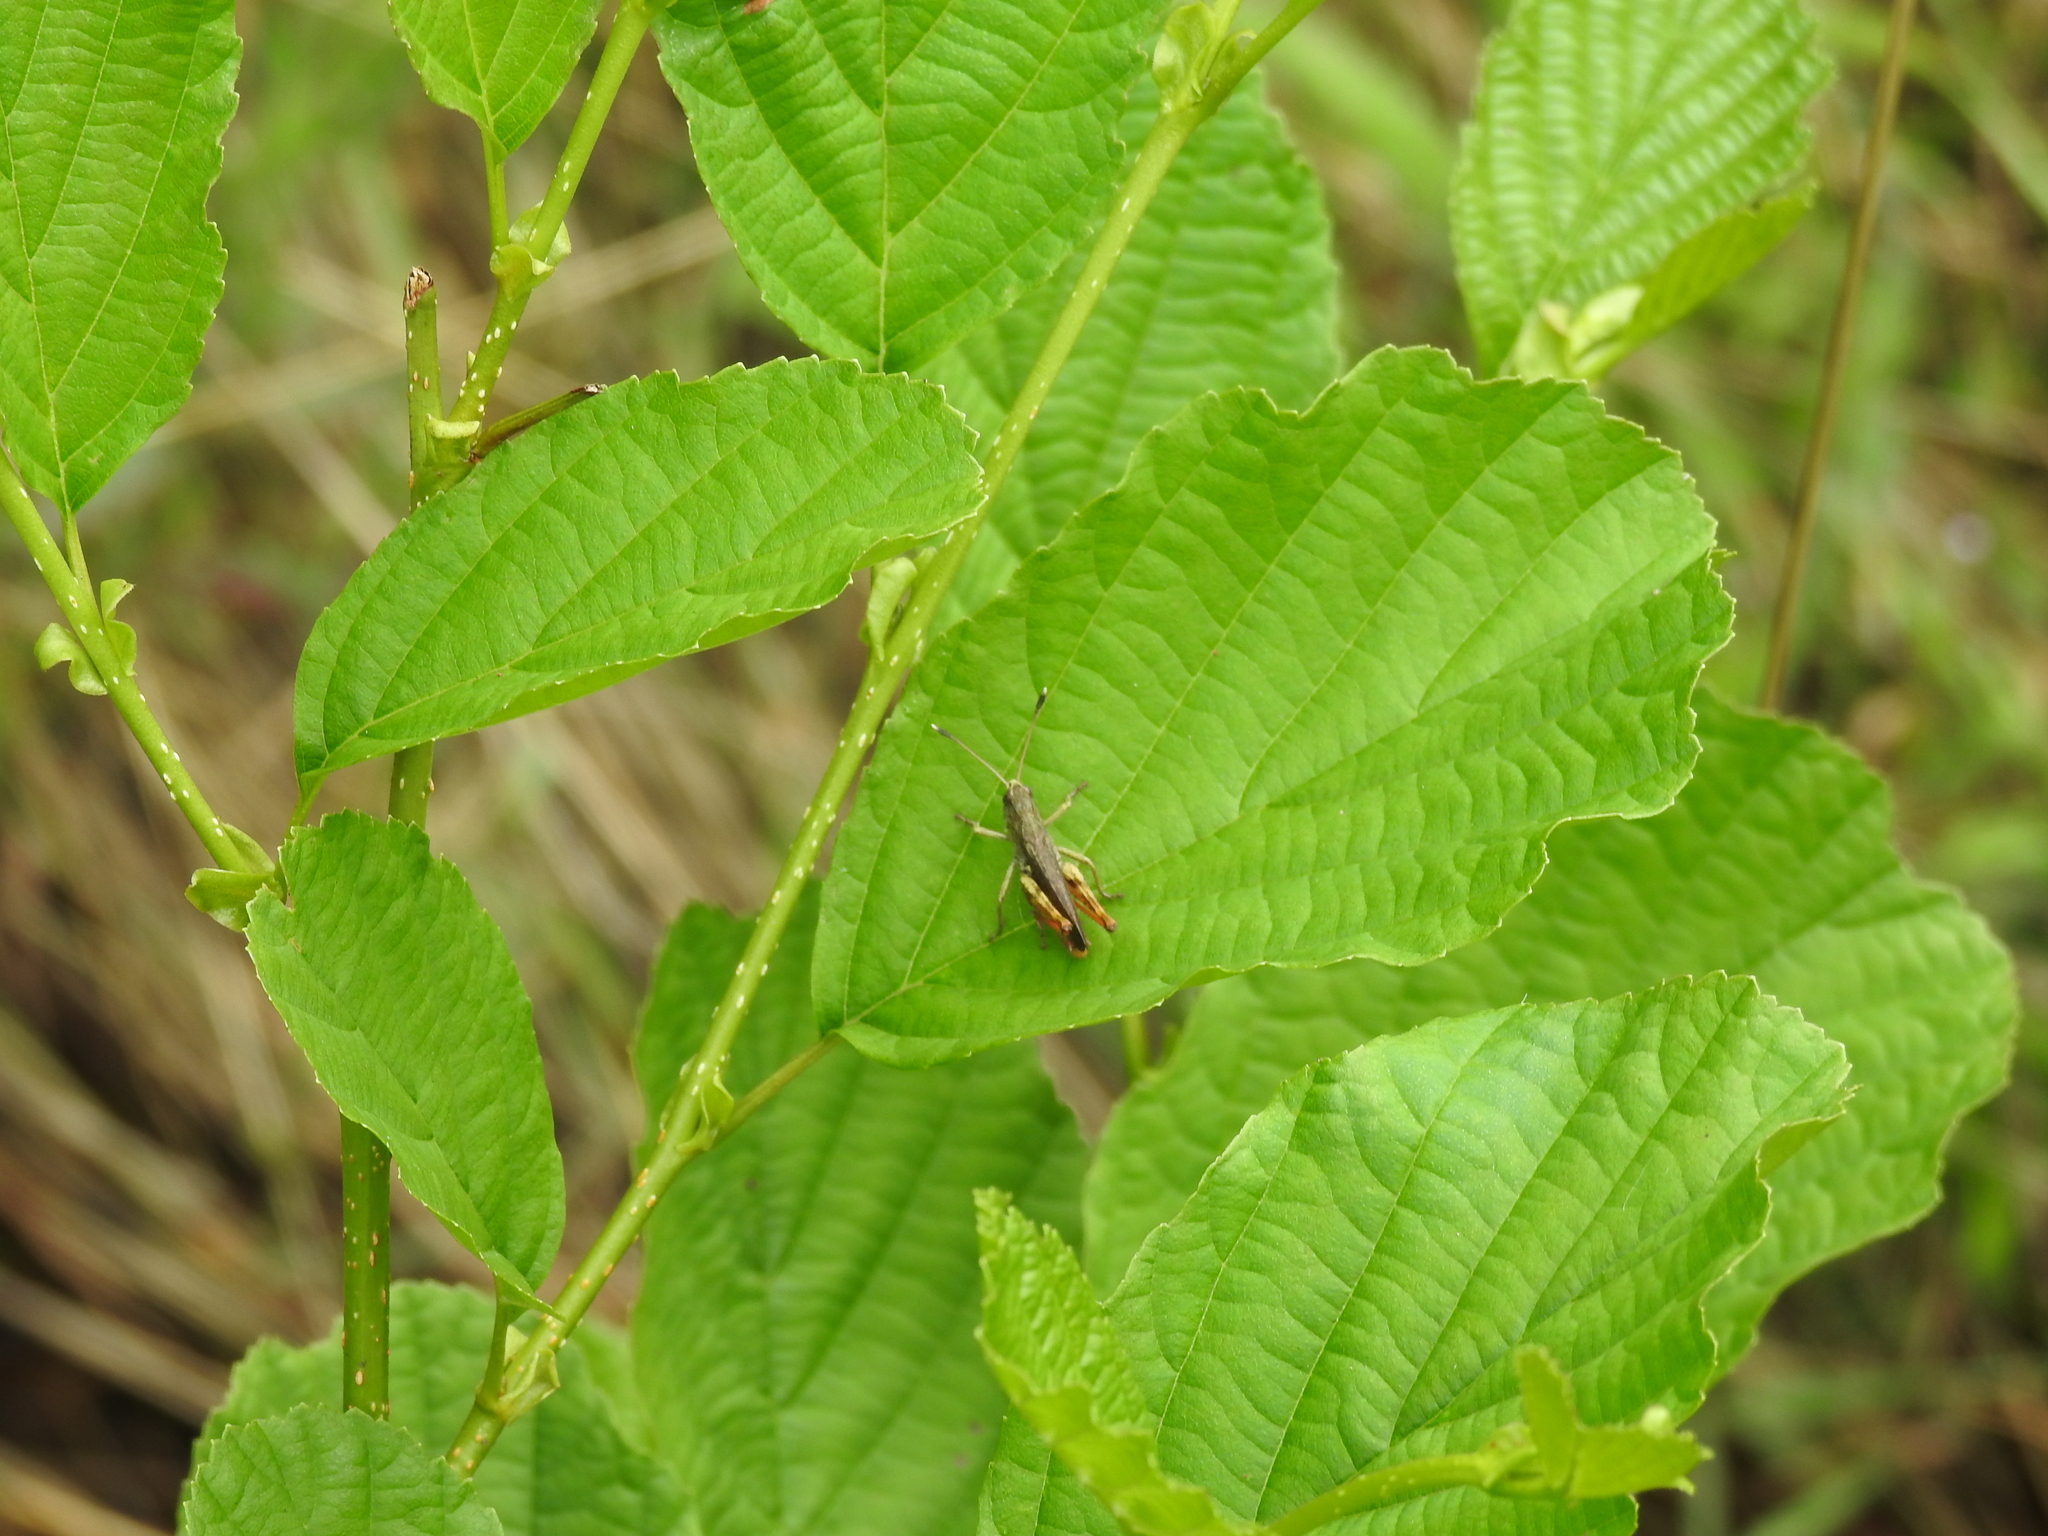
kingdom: Animalia
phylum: Arthropoda
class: Insecta
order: Orthoptera
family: Acrididae
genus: Gomphocerippus
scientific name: Gomphocerippus rufus
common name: Rufous grasshopper
